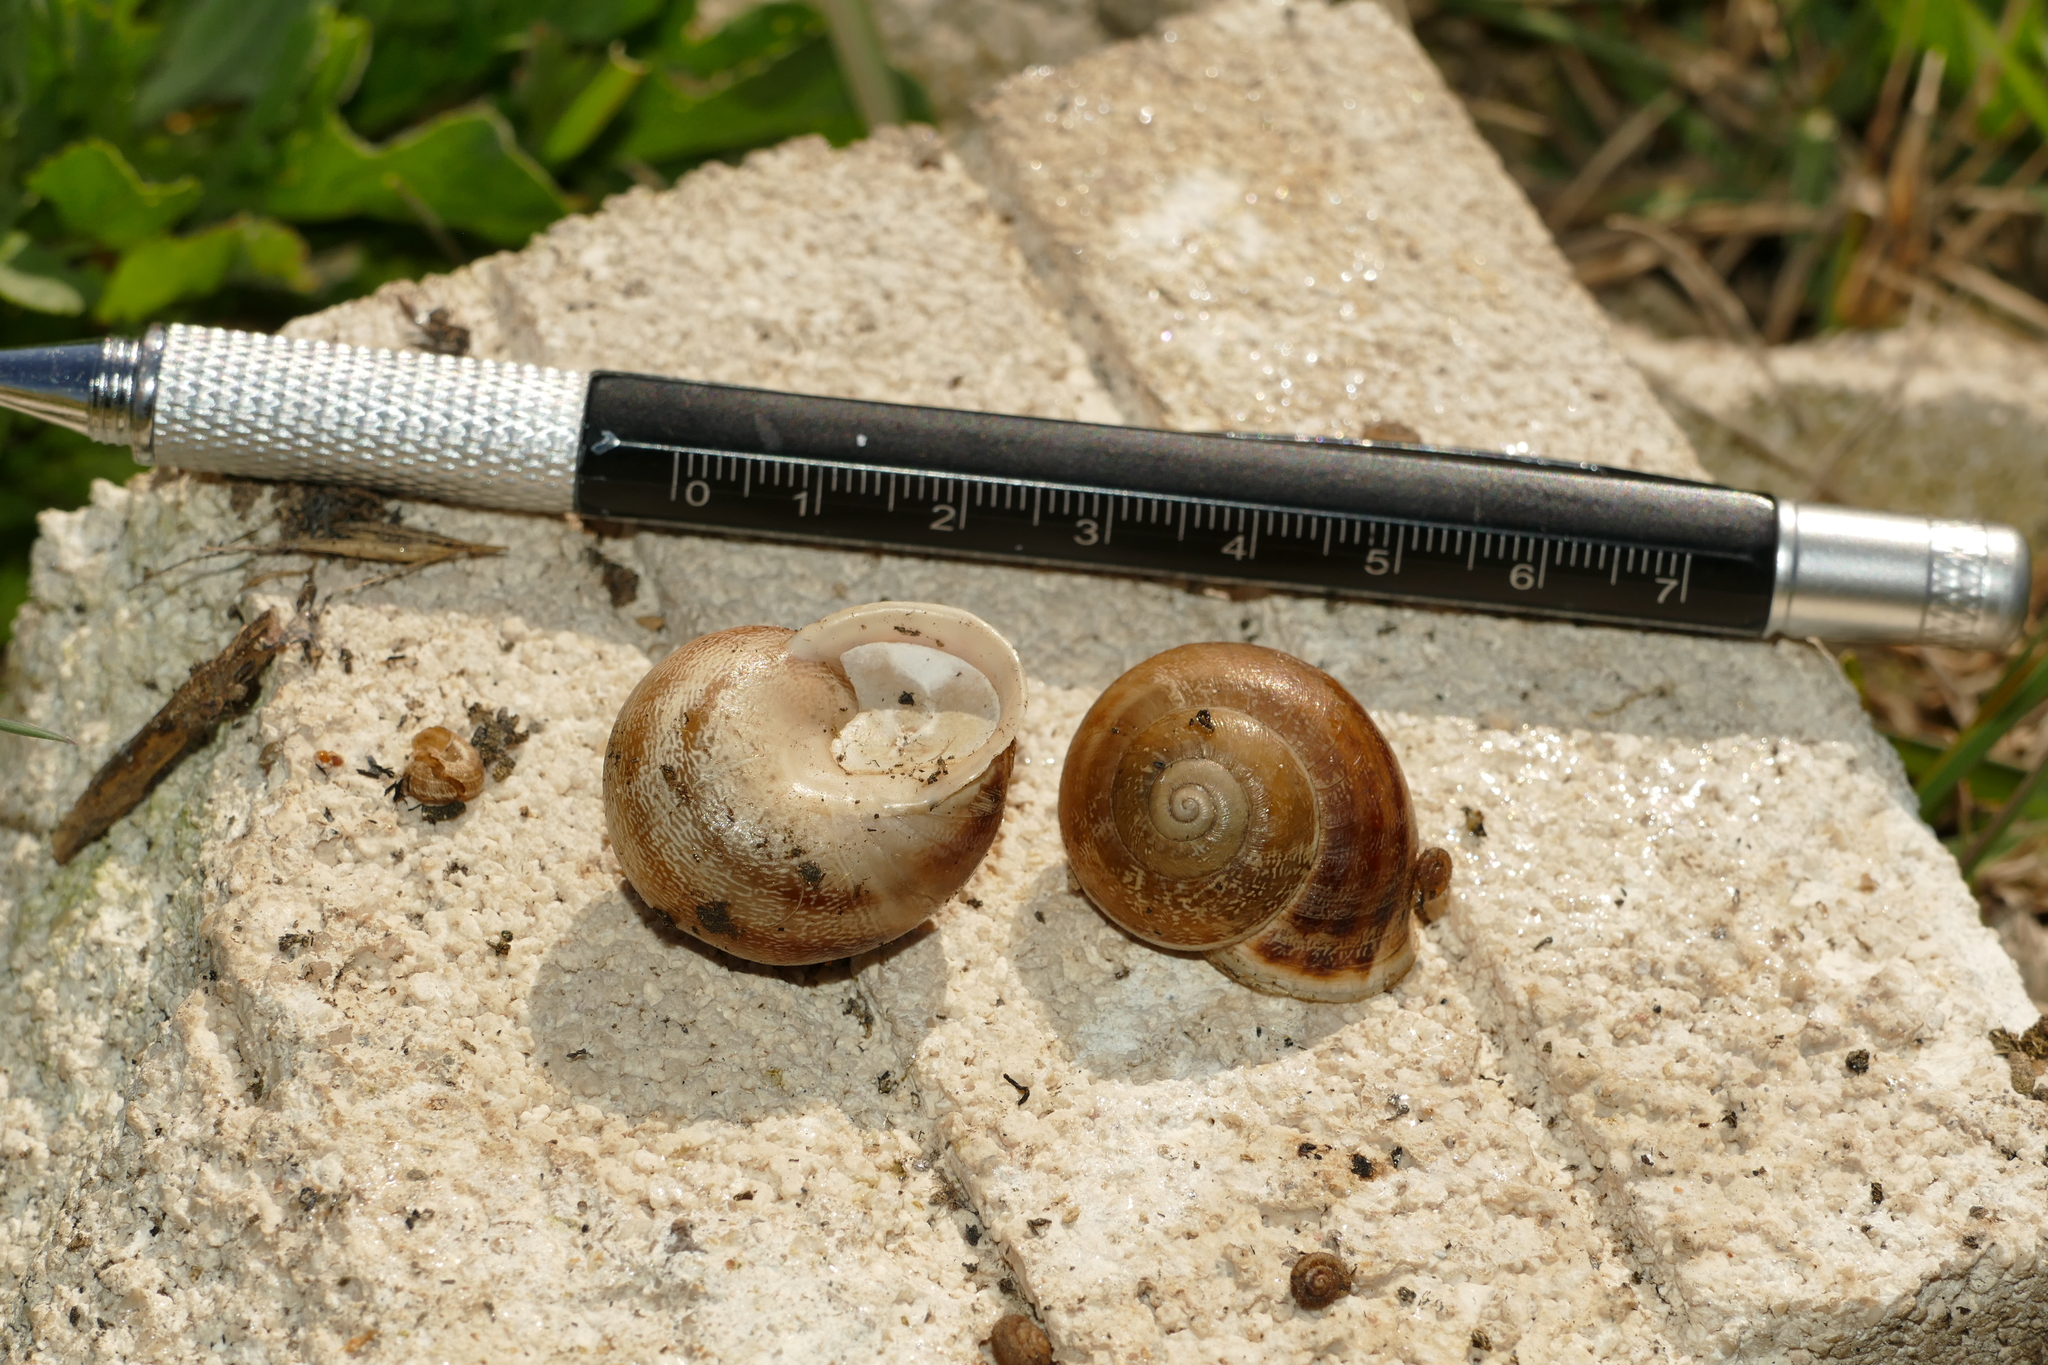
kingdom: Animalia
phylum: Mollusca
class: Gastropoda
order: Stylommatophora
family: Helicidae
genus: Eobania
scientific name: Eobania vermiculata
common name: Chocolateband snail
